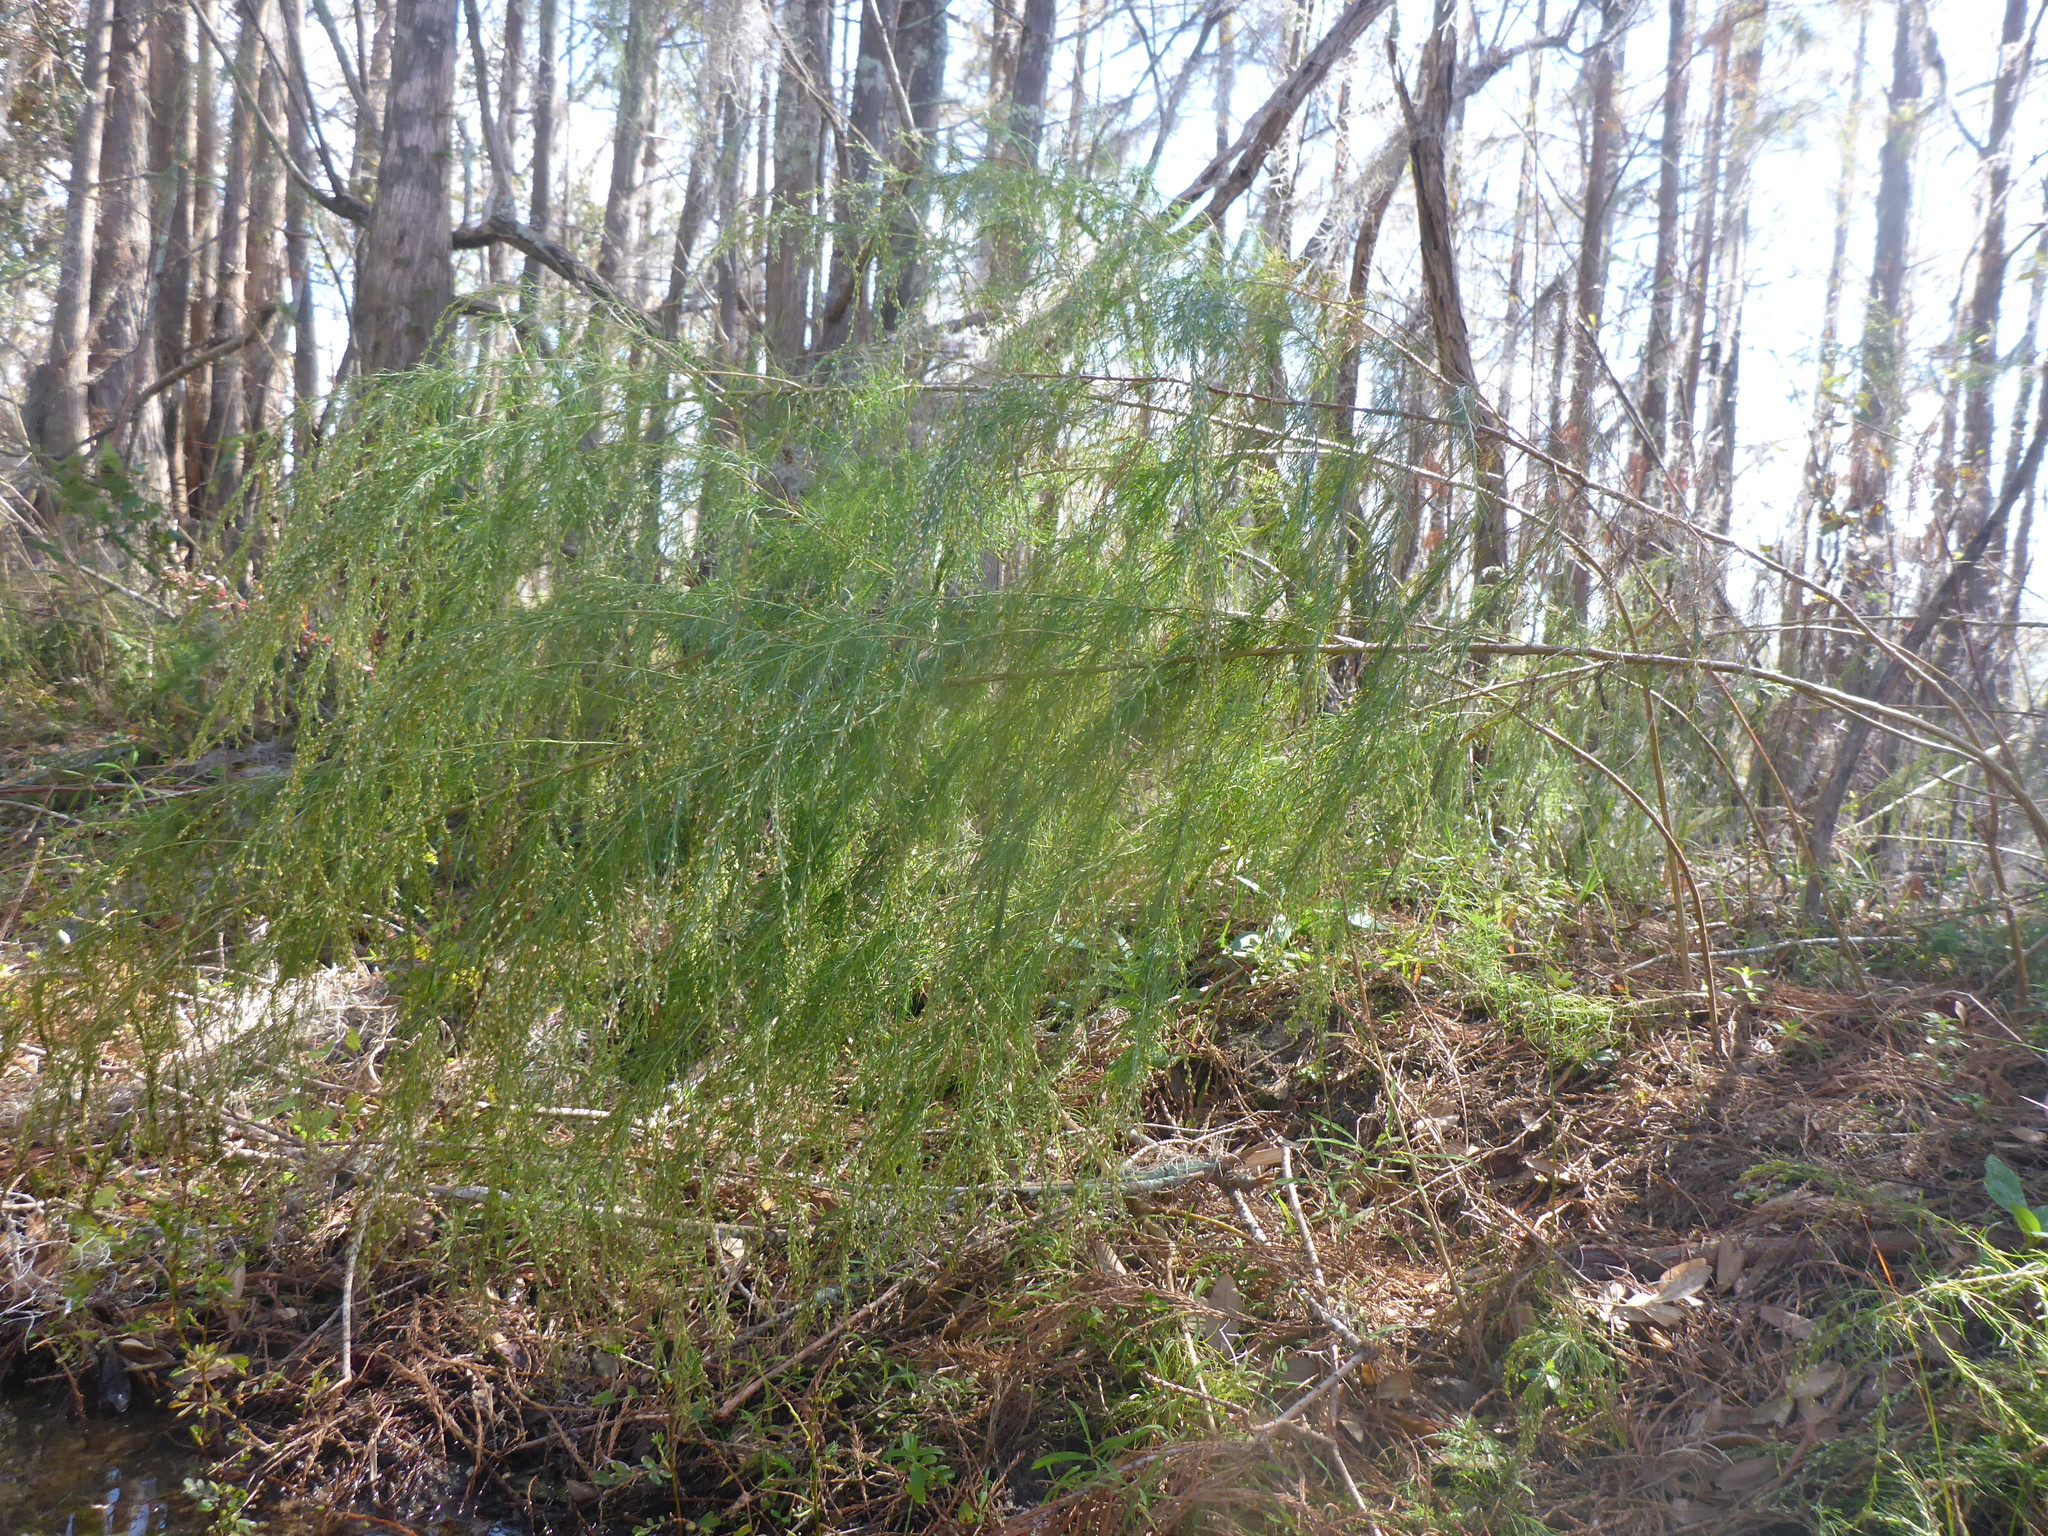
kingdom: Plantae
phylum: Tracheophyta
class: Magnoliopsida
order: Asterales
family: Asteraceae
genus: Eupatorium
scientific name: Eupatorium capillifolium
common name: Dog-fennel
